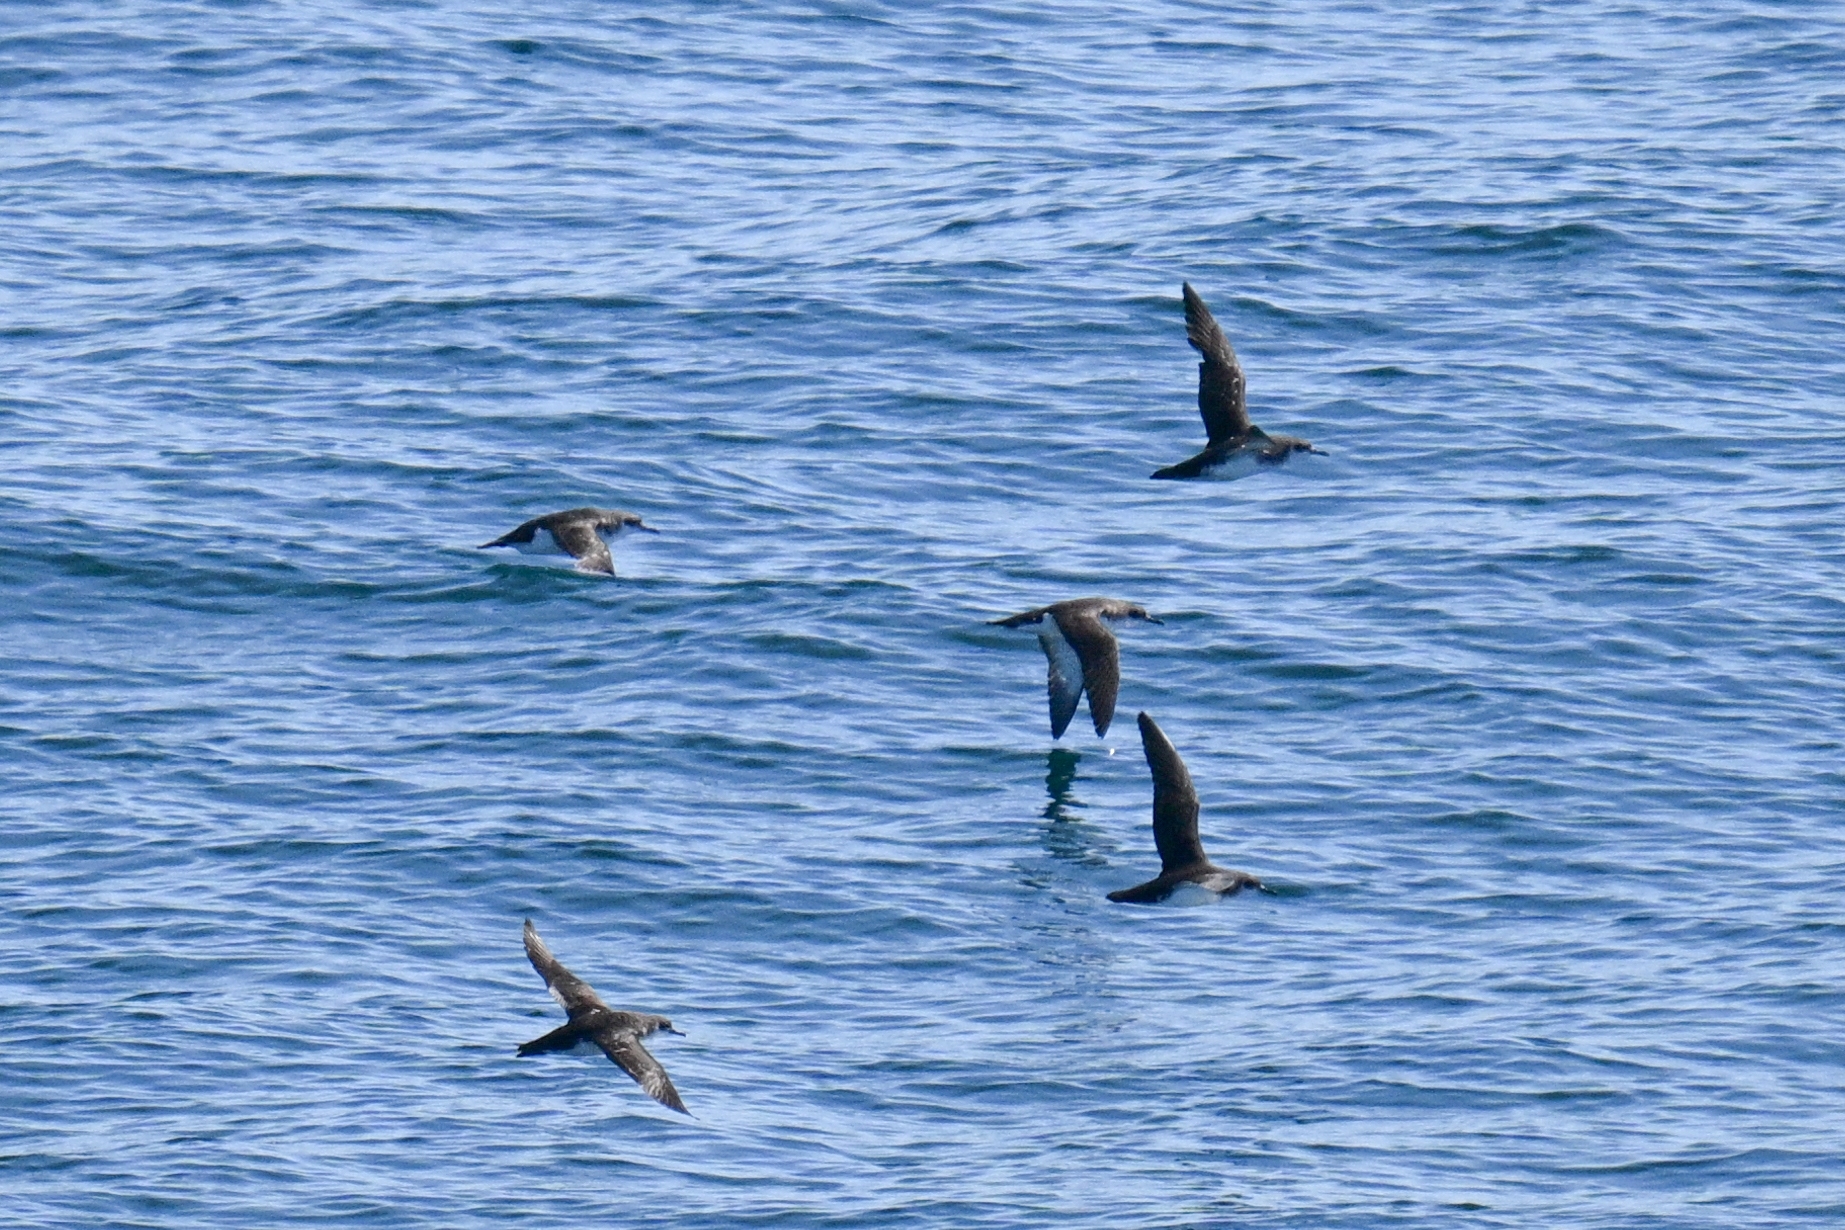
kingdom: Animalia
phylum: Chordata
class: Aves
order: Procellariiformes
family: Procellariidae
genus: Puffinus
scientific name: Puffinus puffinus
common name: Manx shearwater
